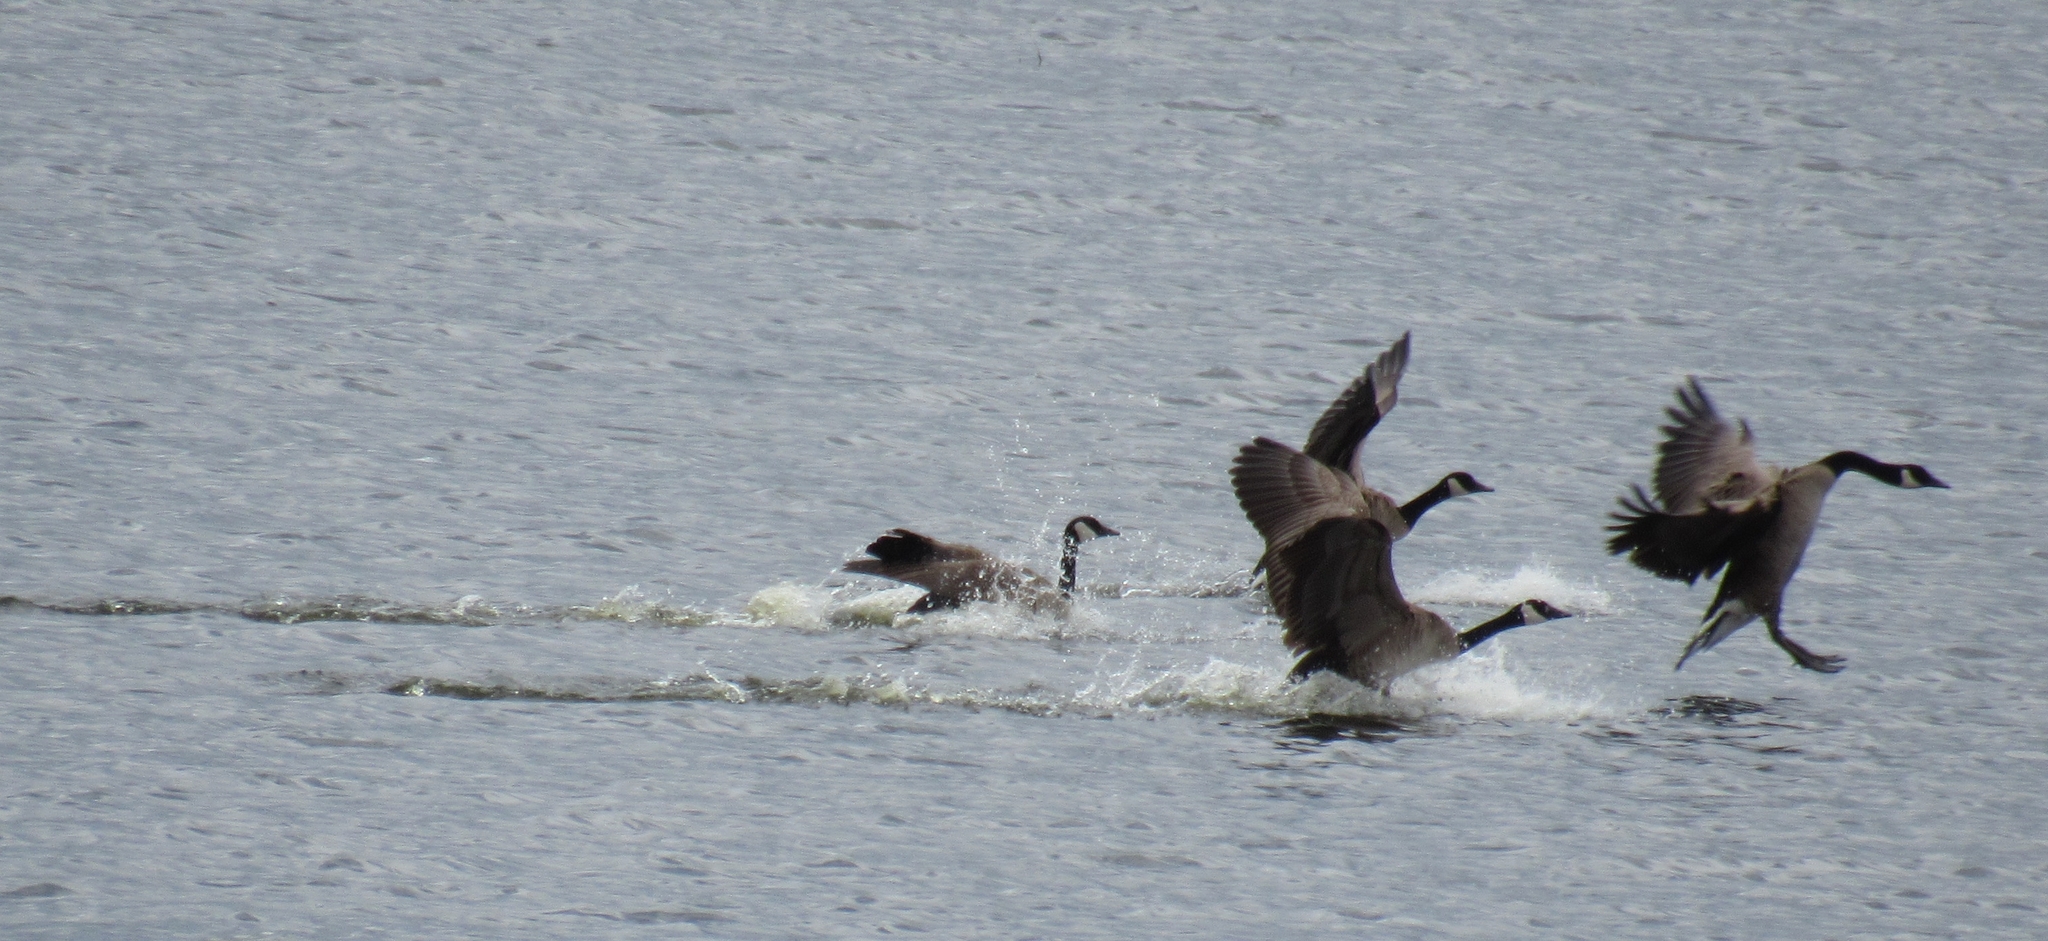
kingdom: Animalia
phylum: Chordata
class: Aves
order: Anseriformes
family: Anatidae
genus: Branta
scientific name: Branta canadensis
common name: Canada goose
